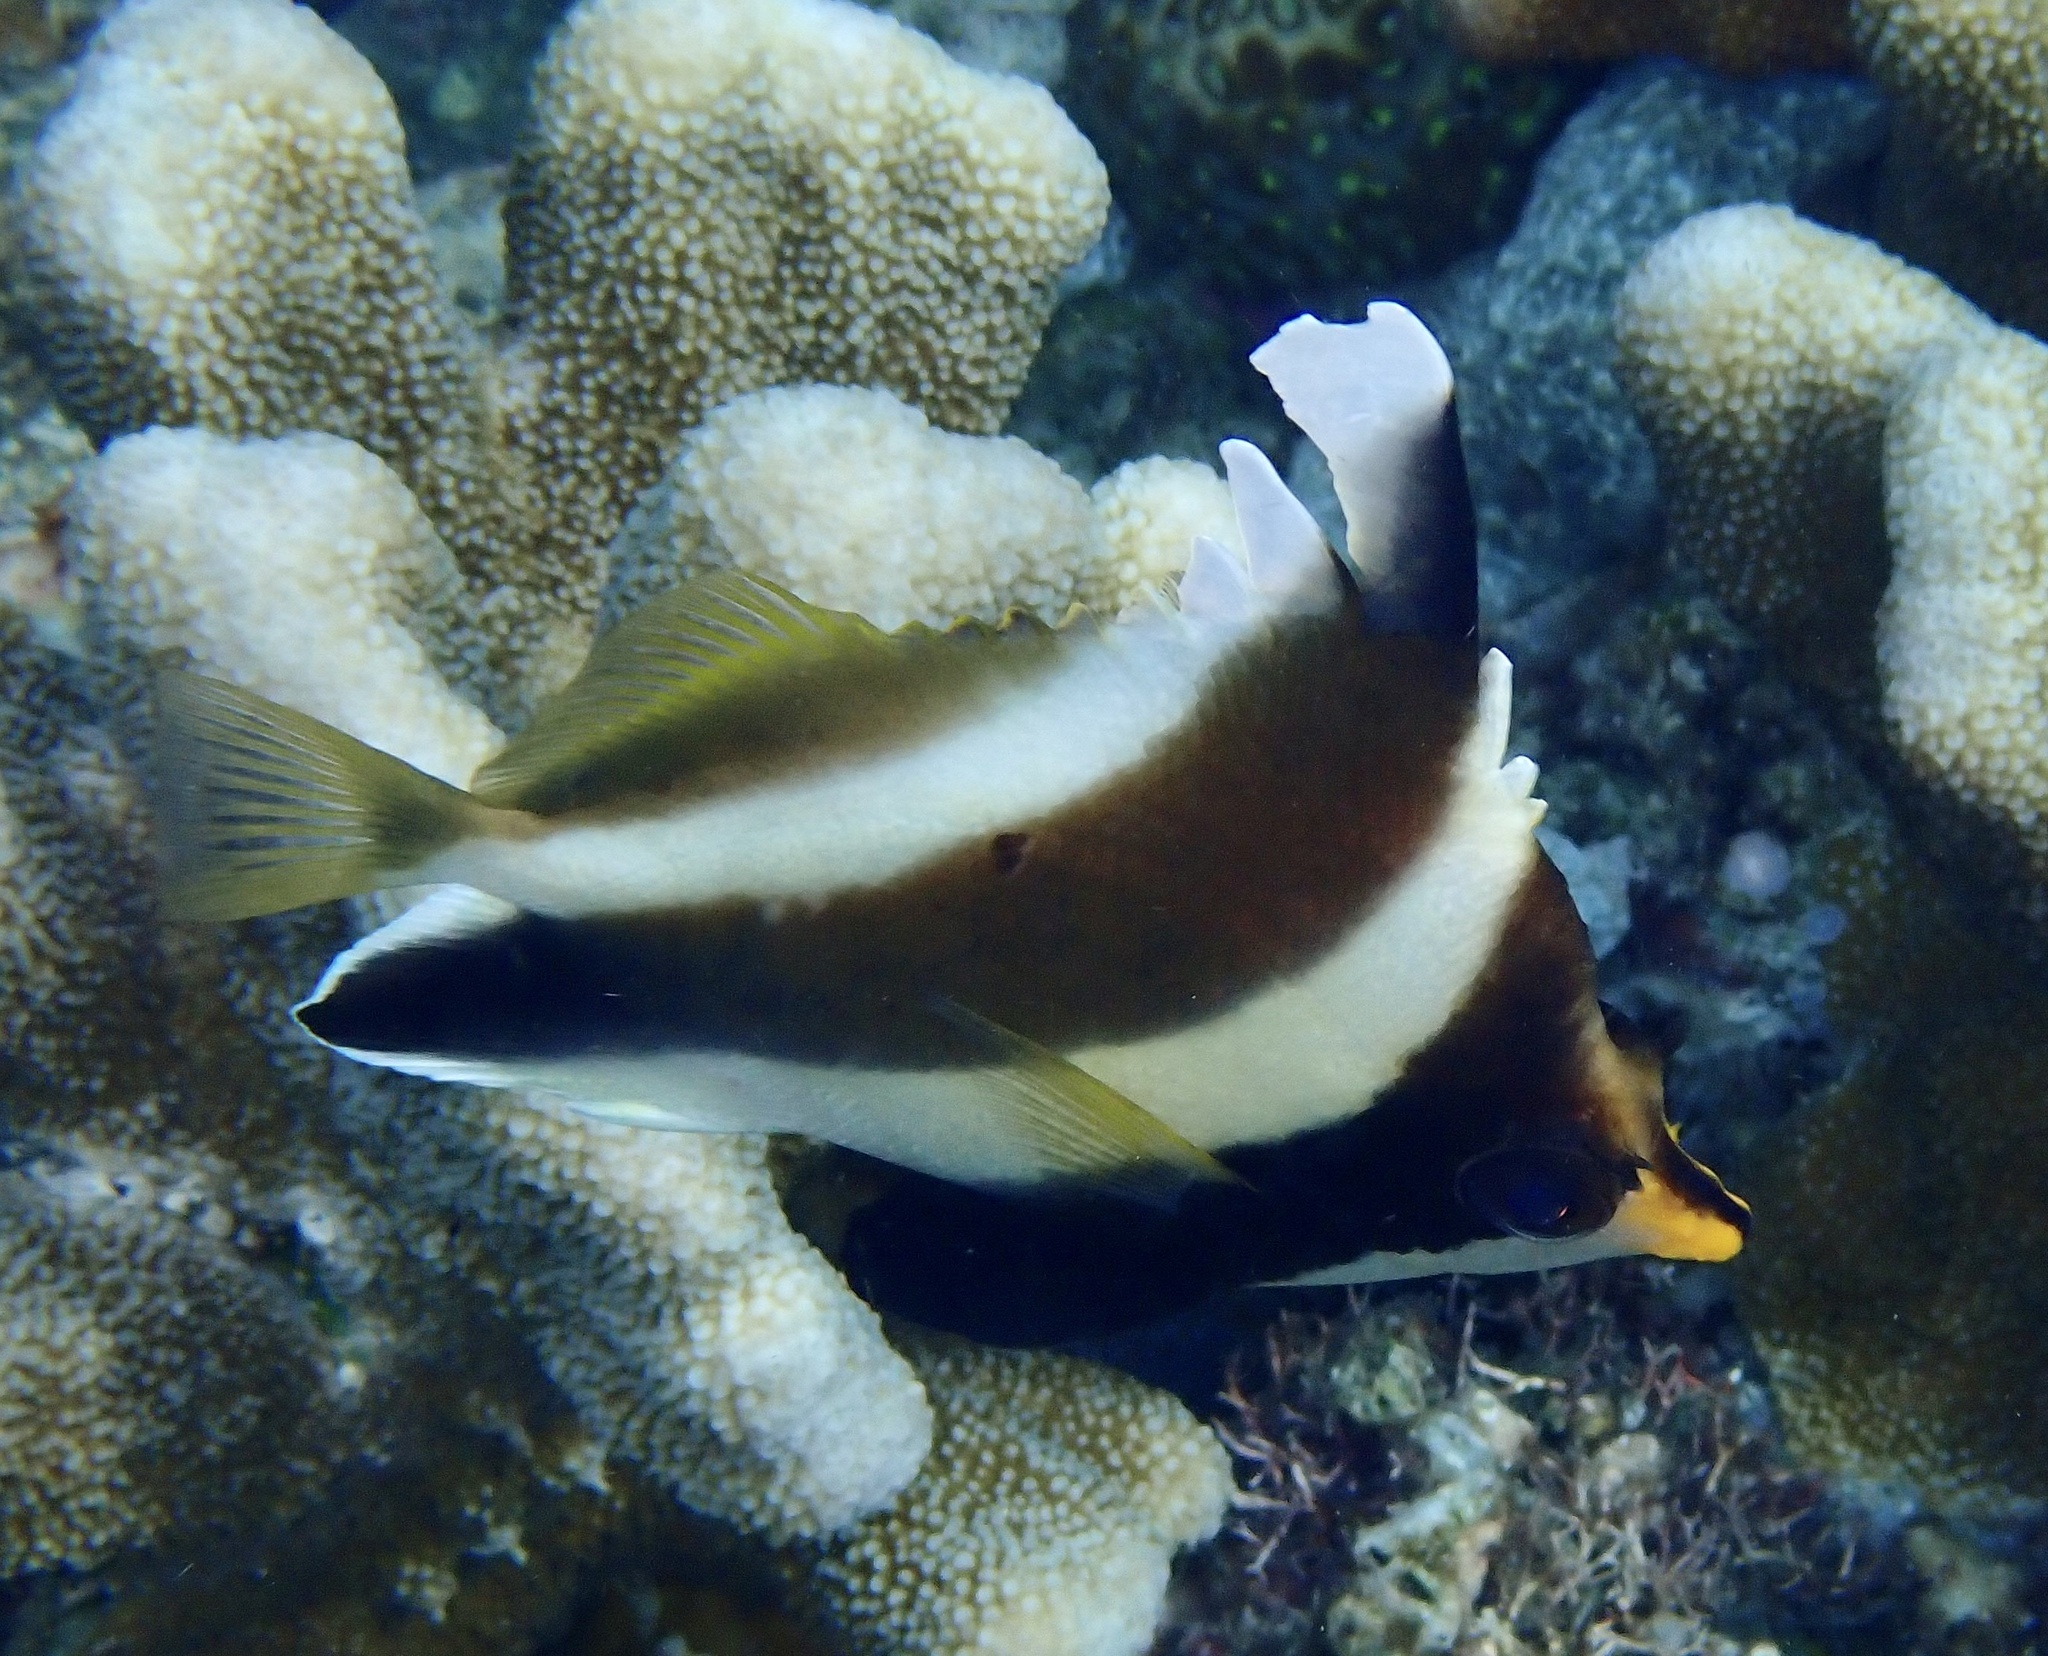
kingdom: Animalia
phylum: Chordata
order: Perciformes
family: Chaetodontidae
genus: Heniochus
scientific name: Heniochus chrysostomus
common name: Horned bannerfish
